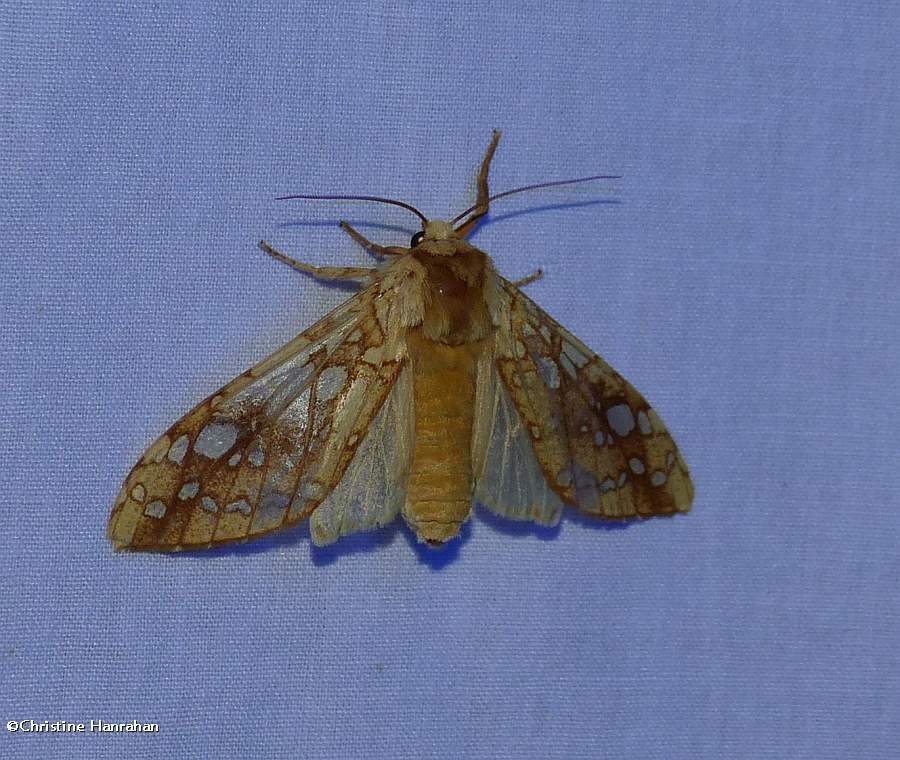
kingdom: Animalia
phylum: Arthropoda
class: Insecta
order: Lepidoptera
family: Erebidae
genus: Lophocampa
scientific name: Lophocampa caryae
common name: Hickory tussock moth
